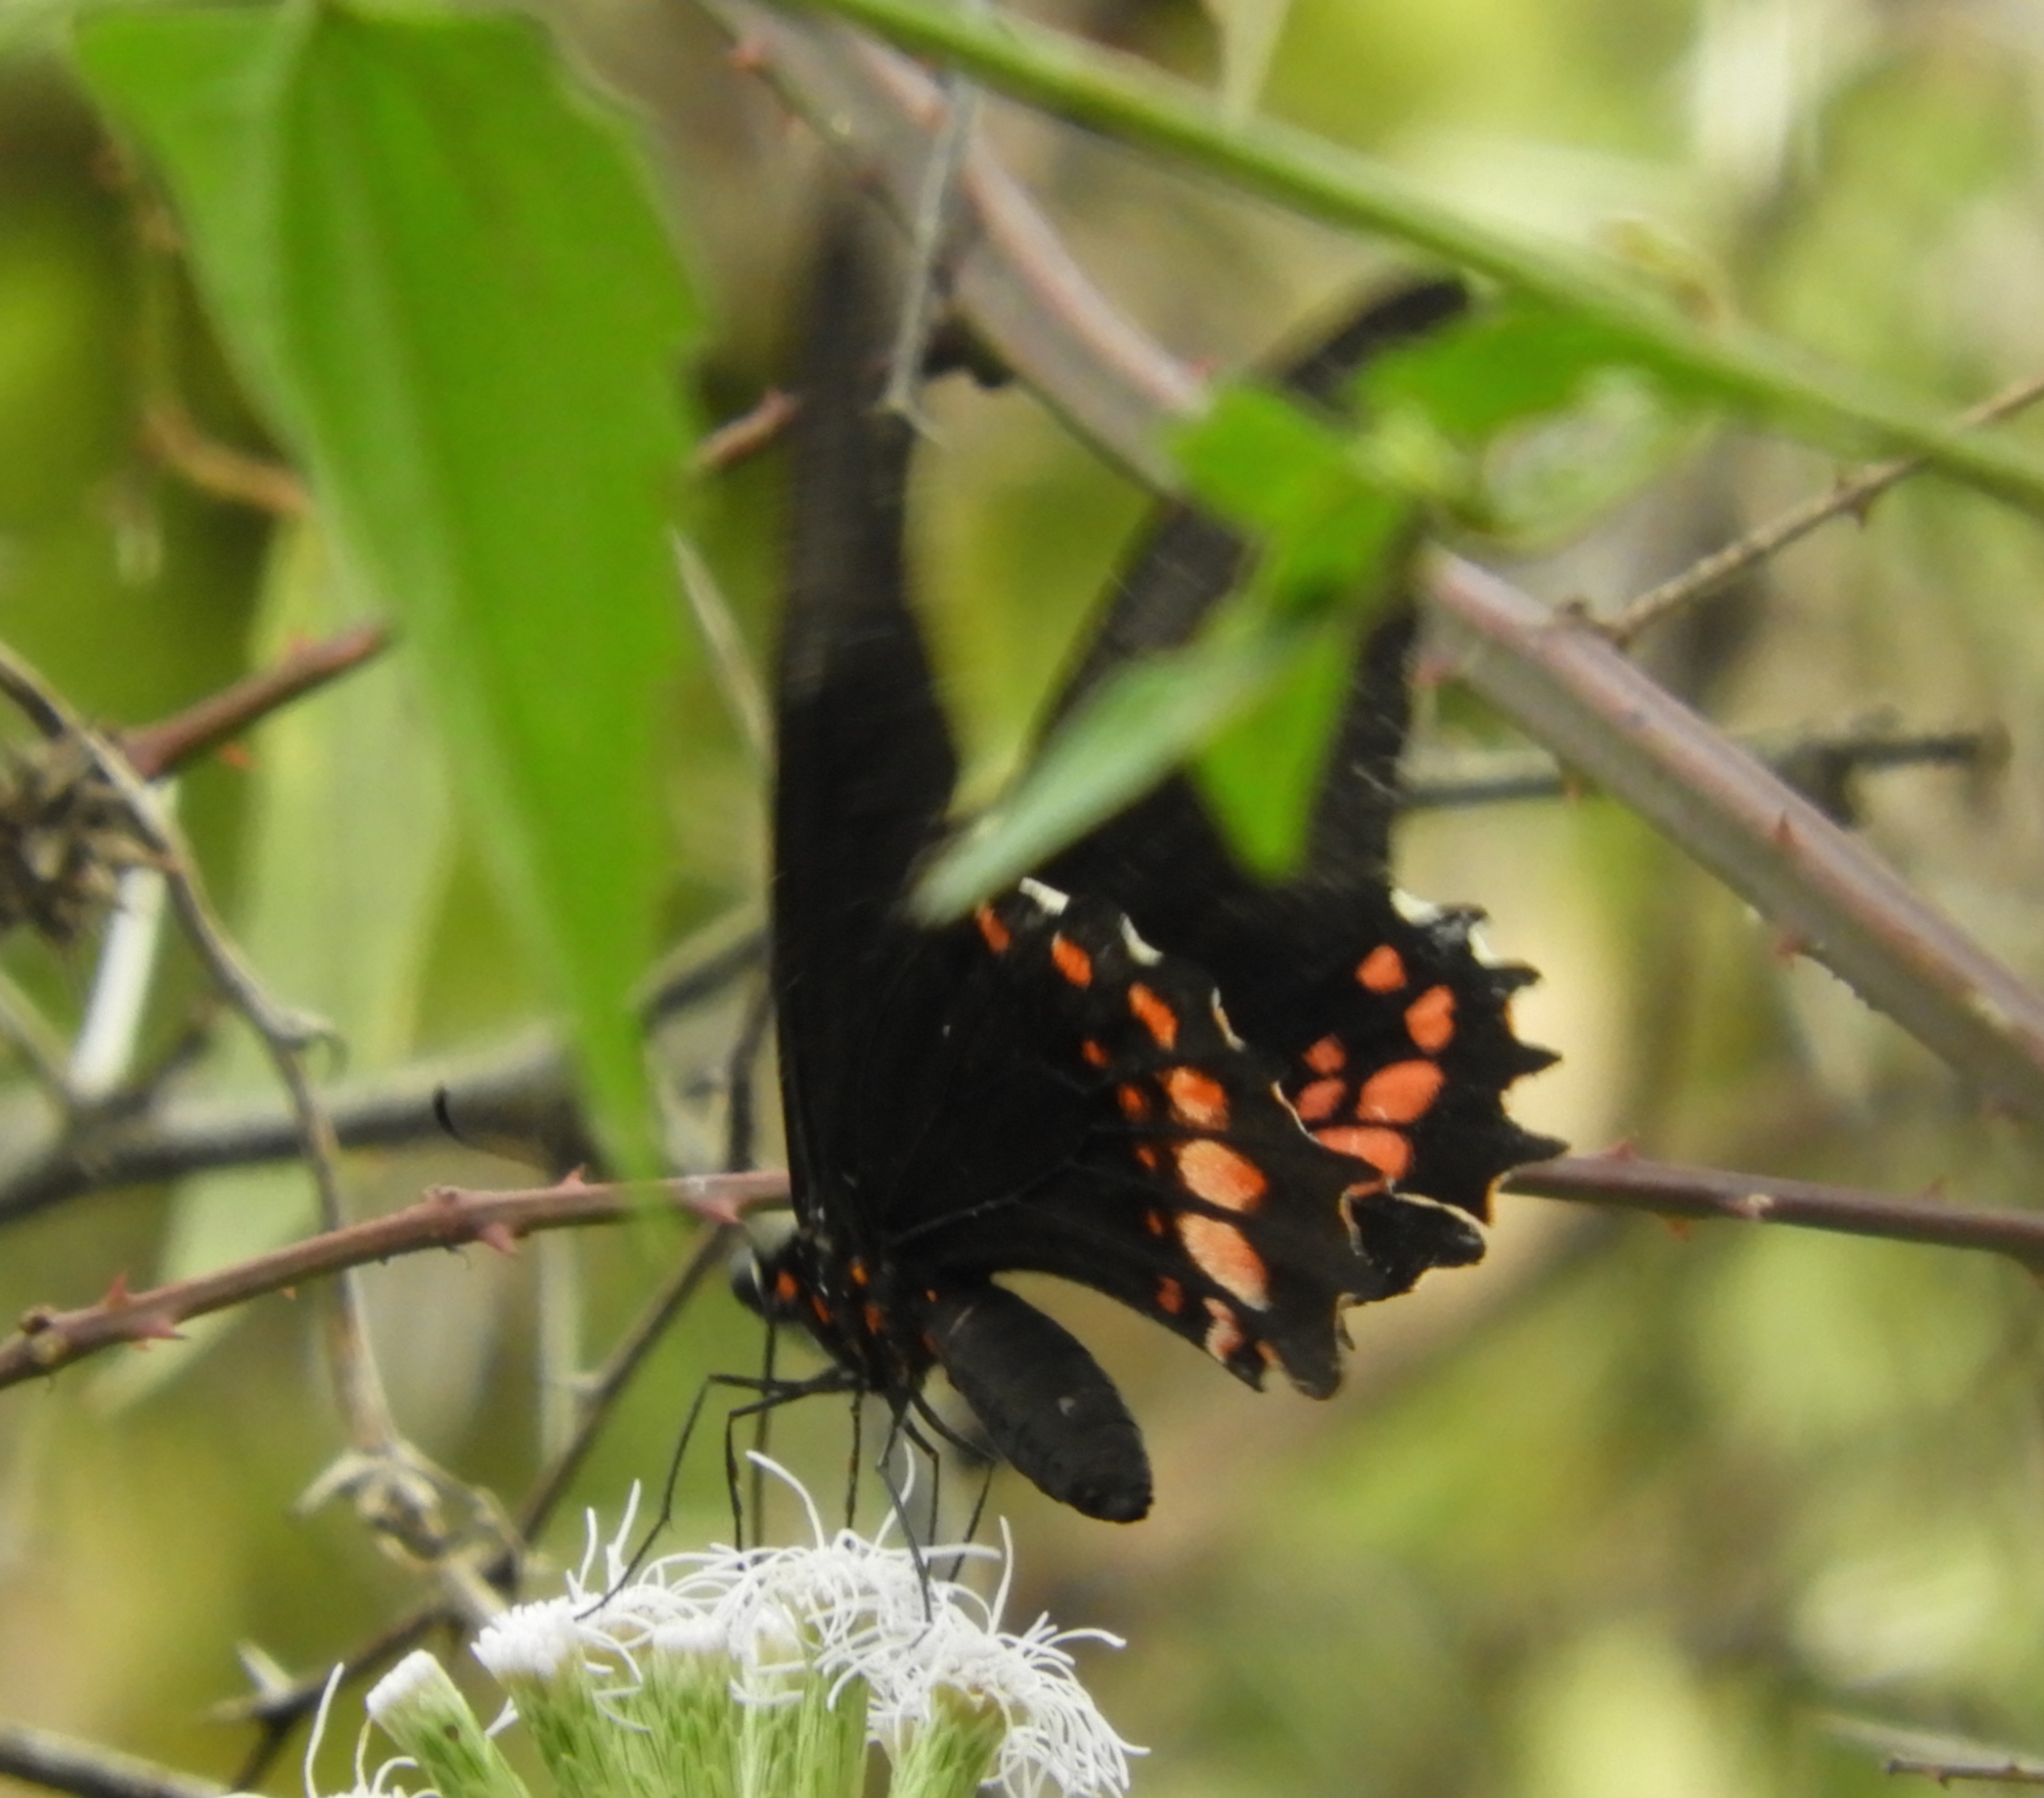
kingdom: Animalia
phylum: Arthropoda
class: Insecta
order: Lepidoptera
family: Papilionidae
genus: Papilio
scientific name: Papilio anchisiades
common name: Idaes swallowtail
